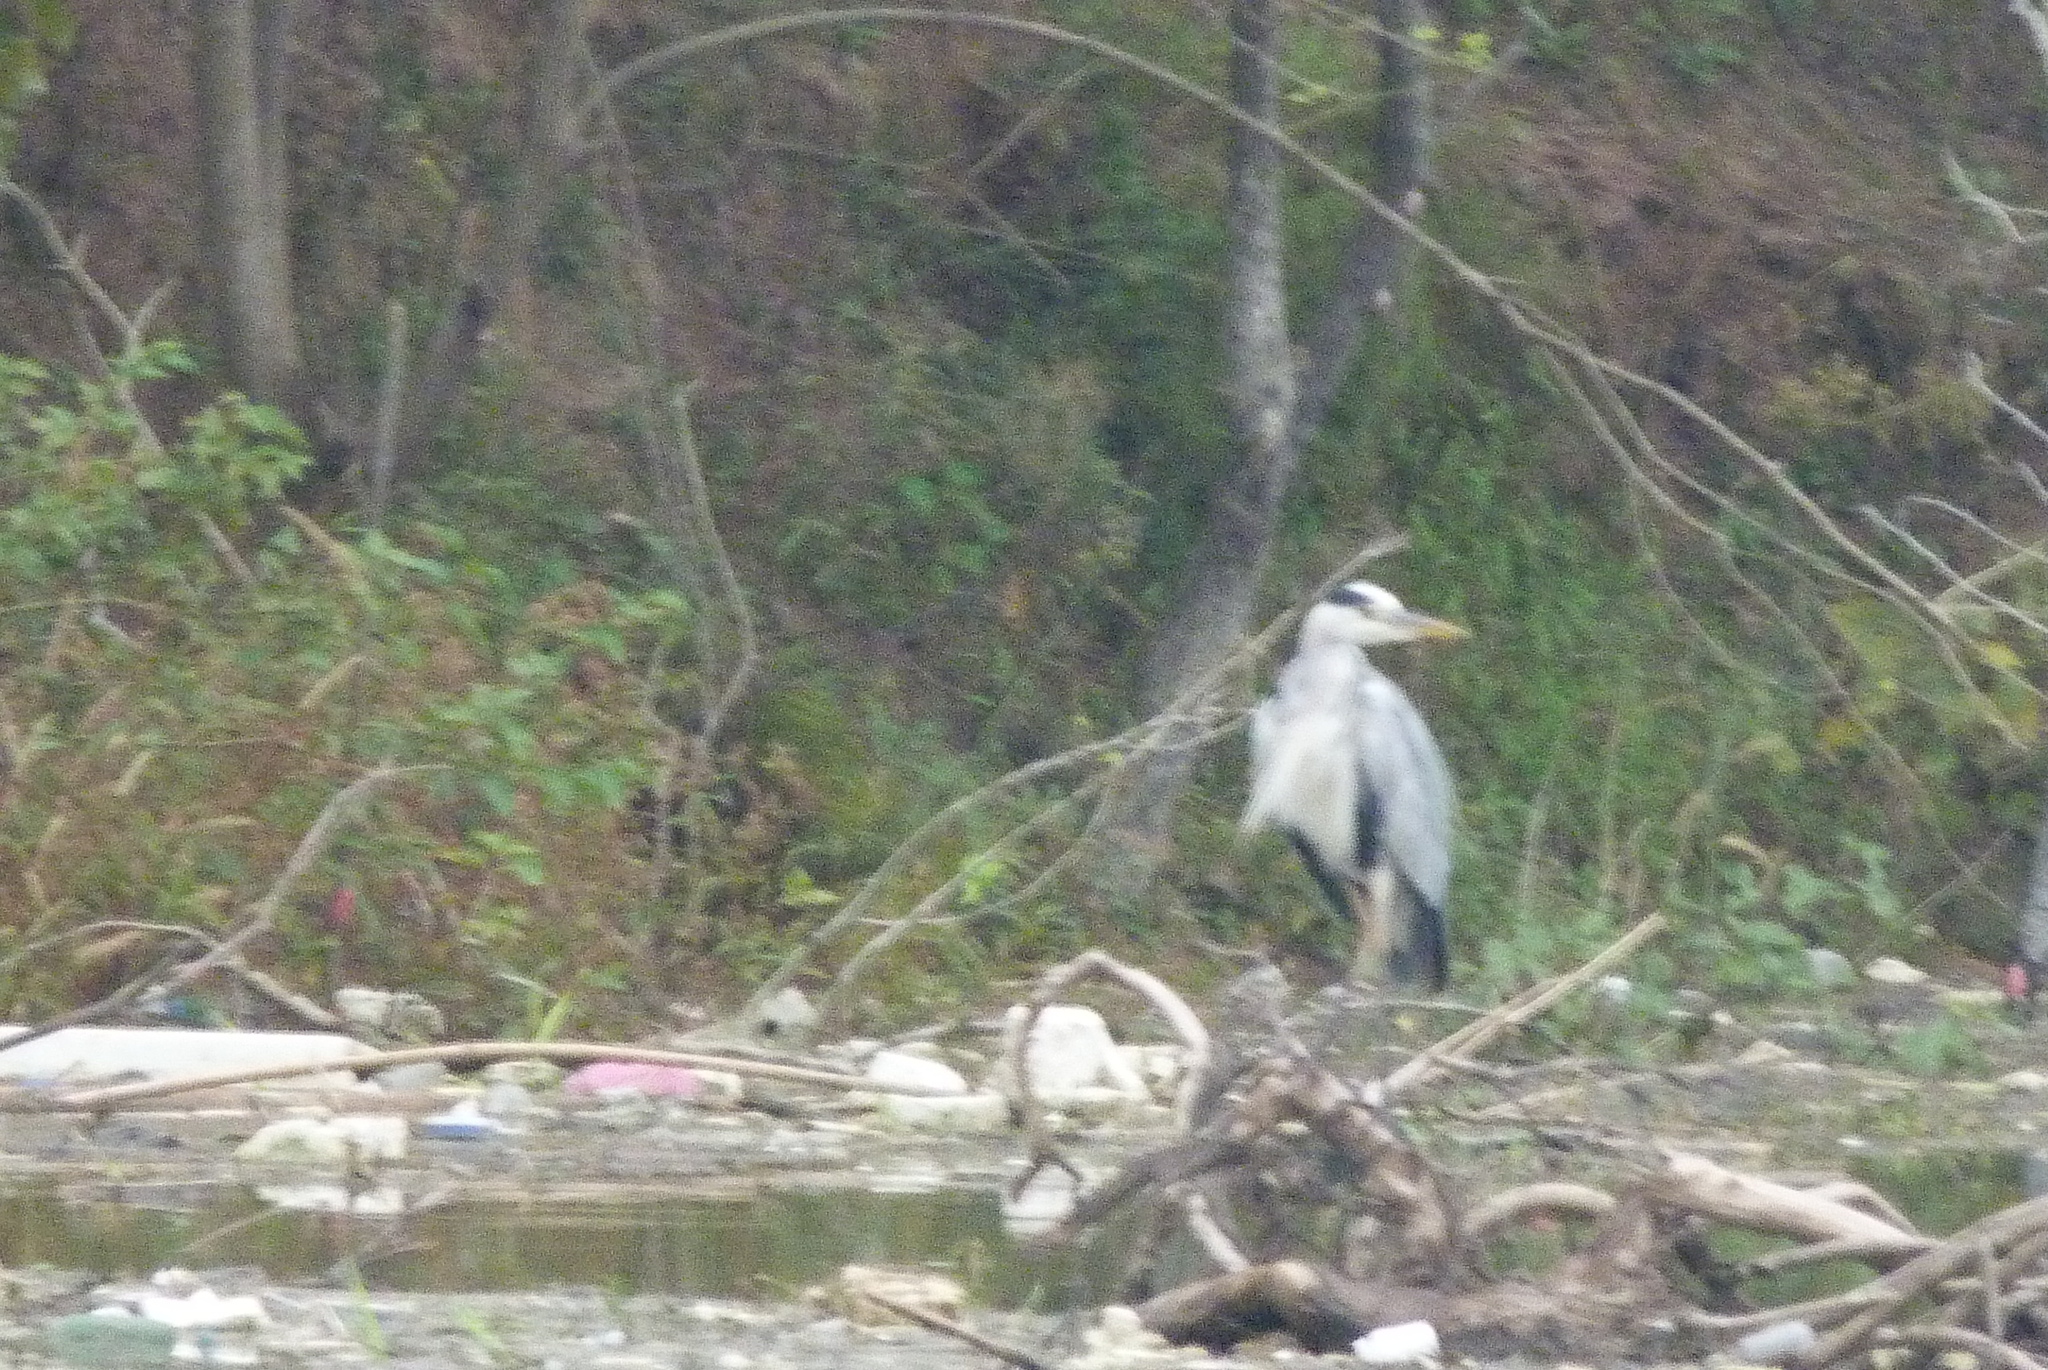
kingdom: Animalia
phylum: Chordata
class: Aves
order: Pelecaniformes
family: Ardeidae
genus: Ardea
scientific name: Ardea cinerea
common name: Grey heron
